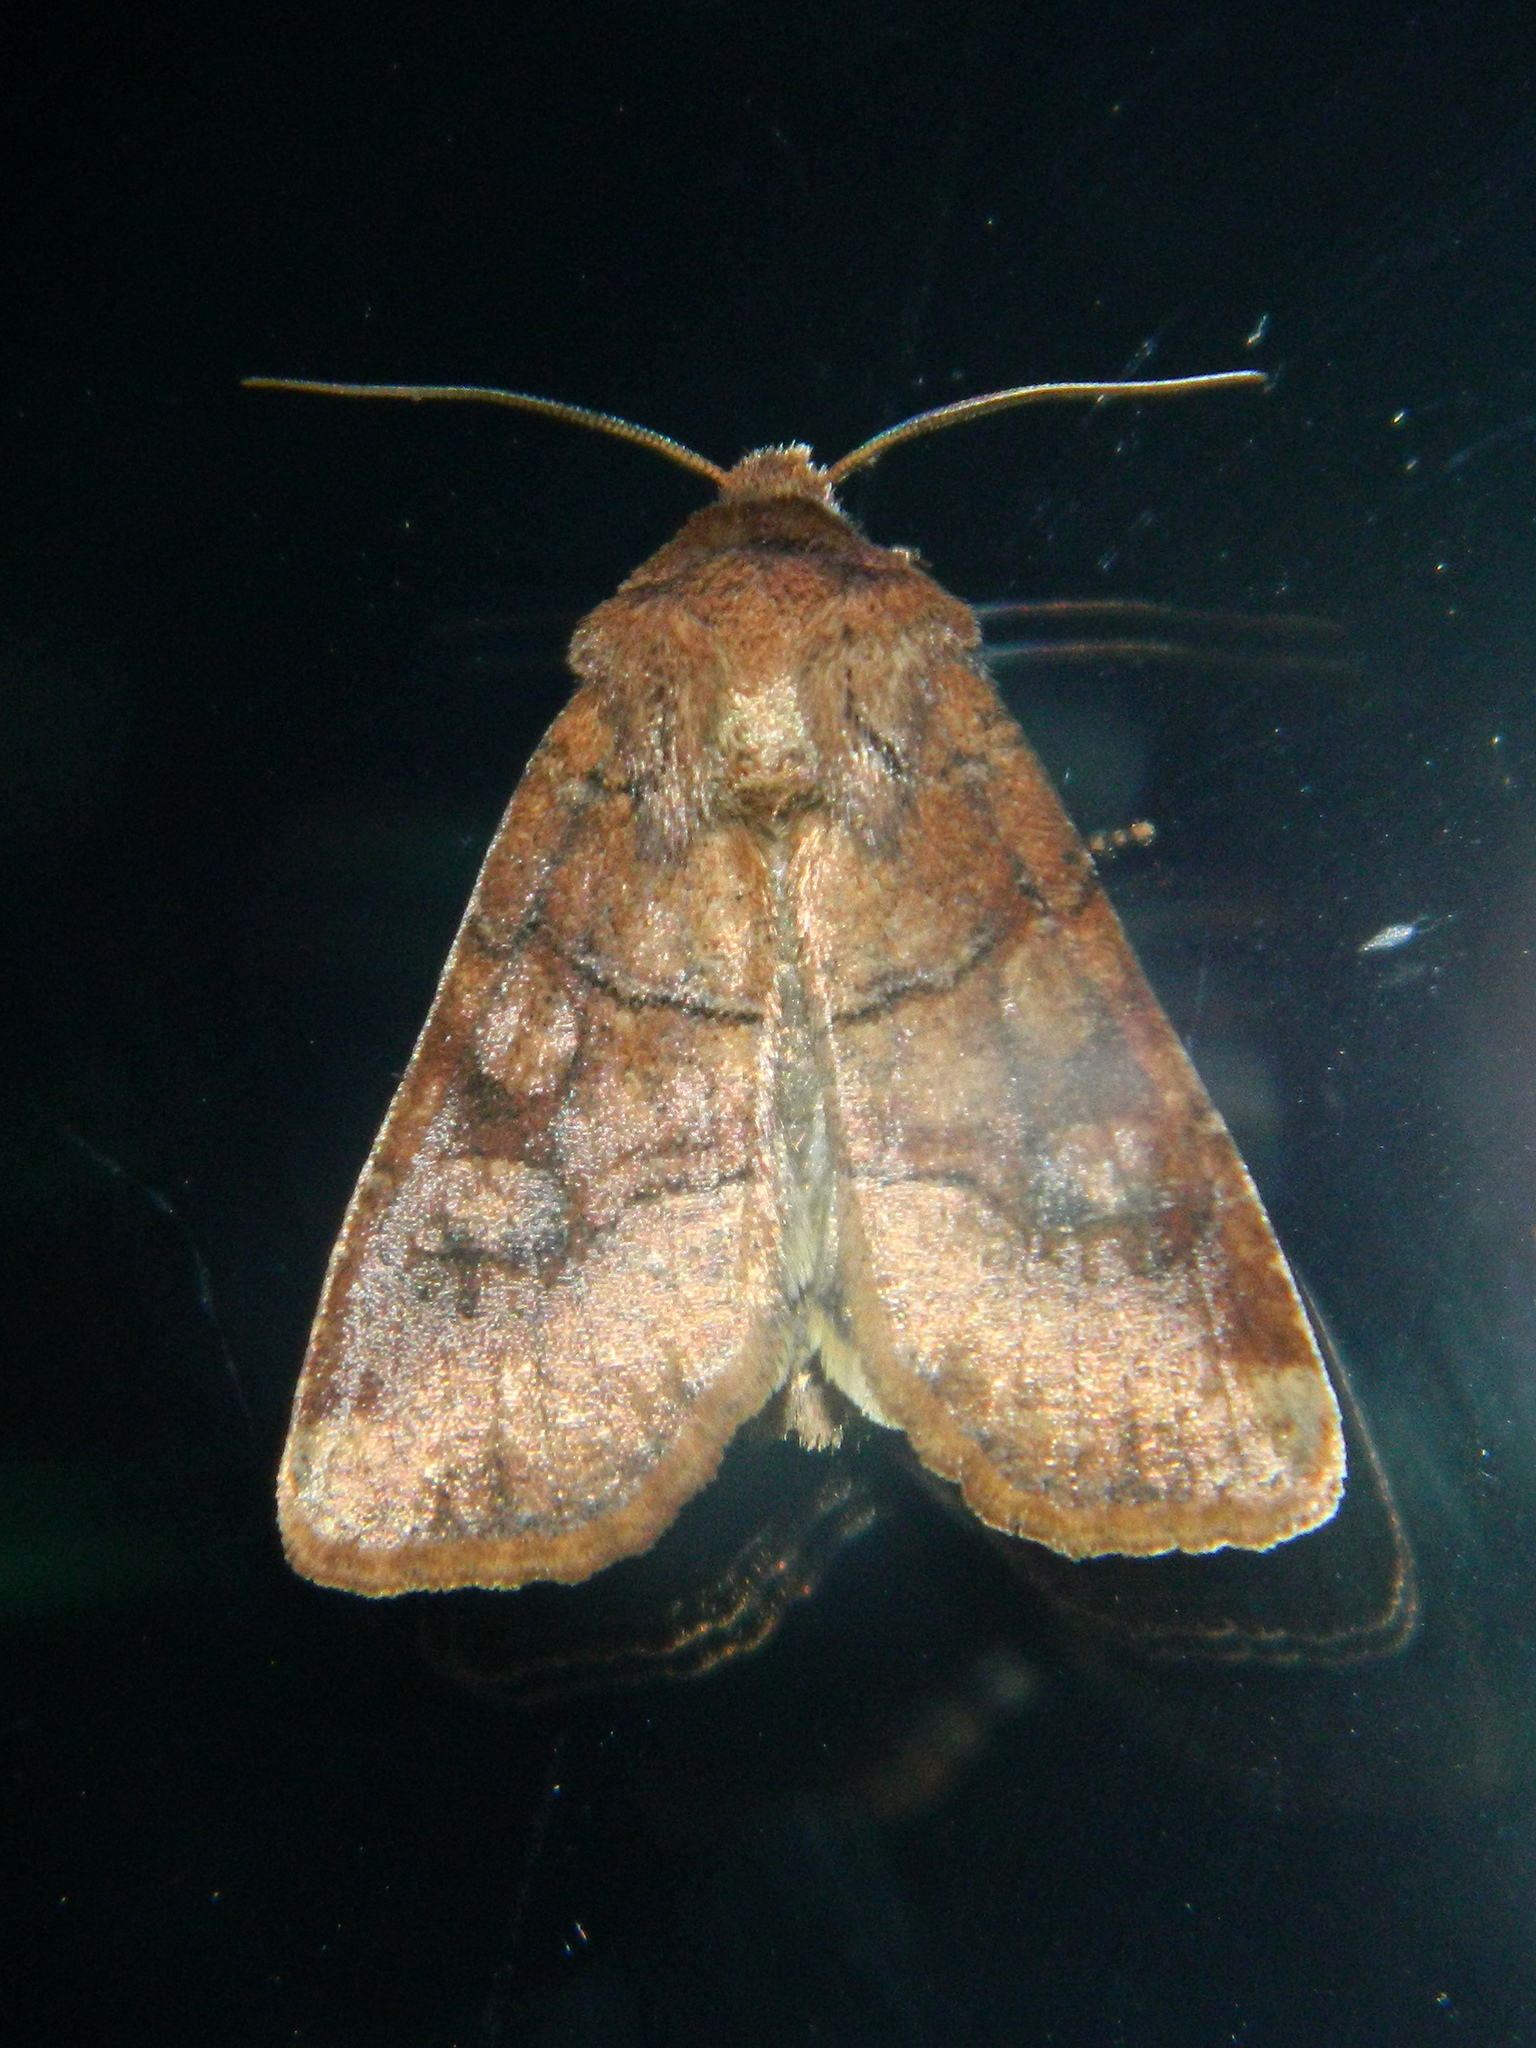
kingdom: Animalia
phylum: Arthropoda
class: Insecta
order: Lepidoptera
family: Noctuidae
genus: Crocigrapha
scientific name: Crocigrapha normani
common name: Norman's quaker
